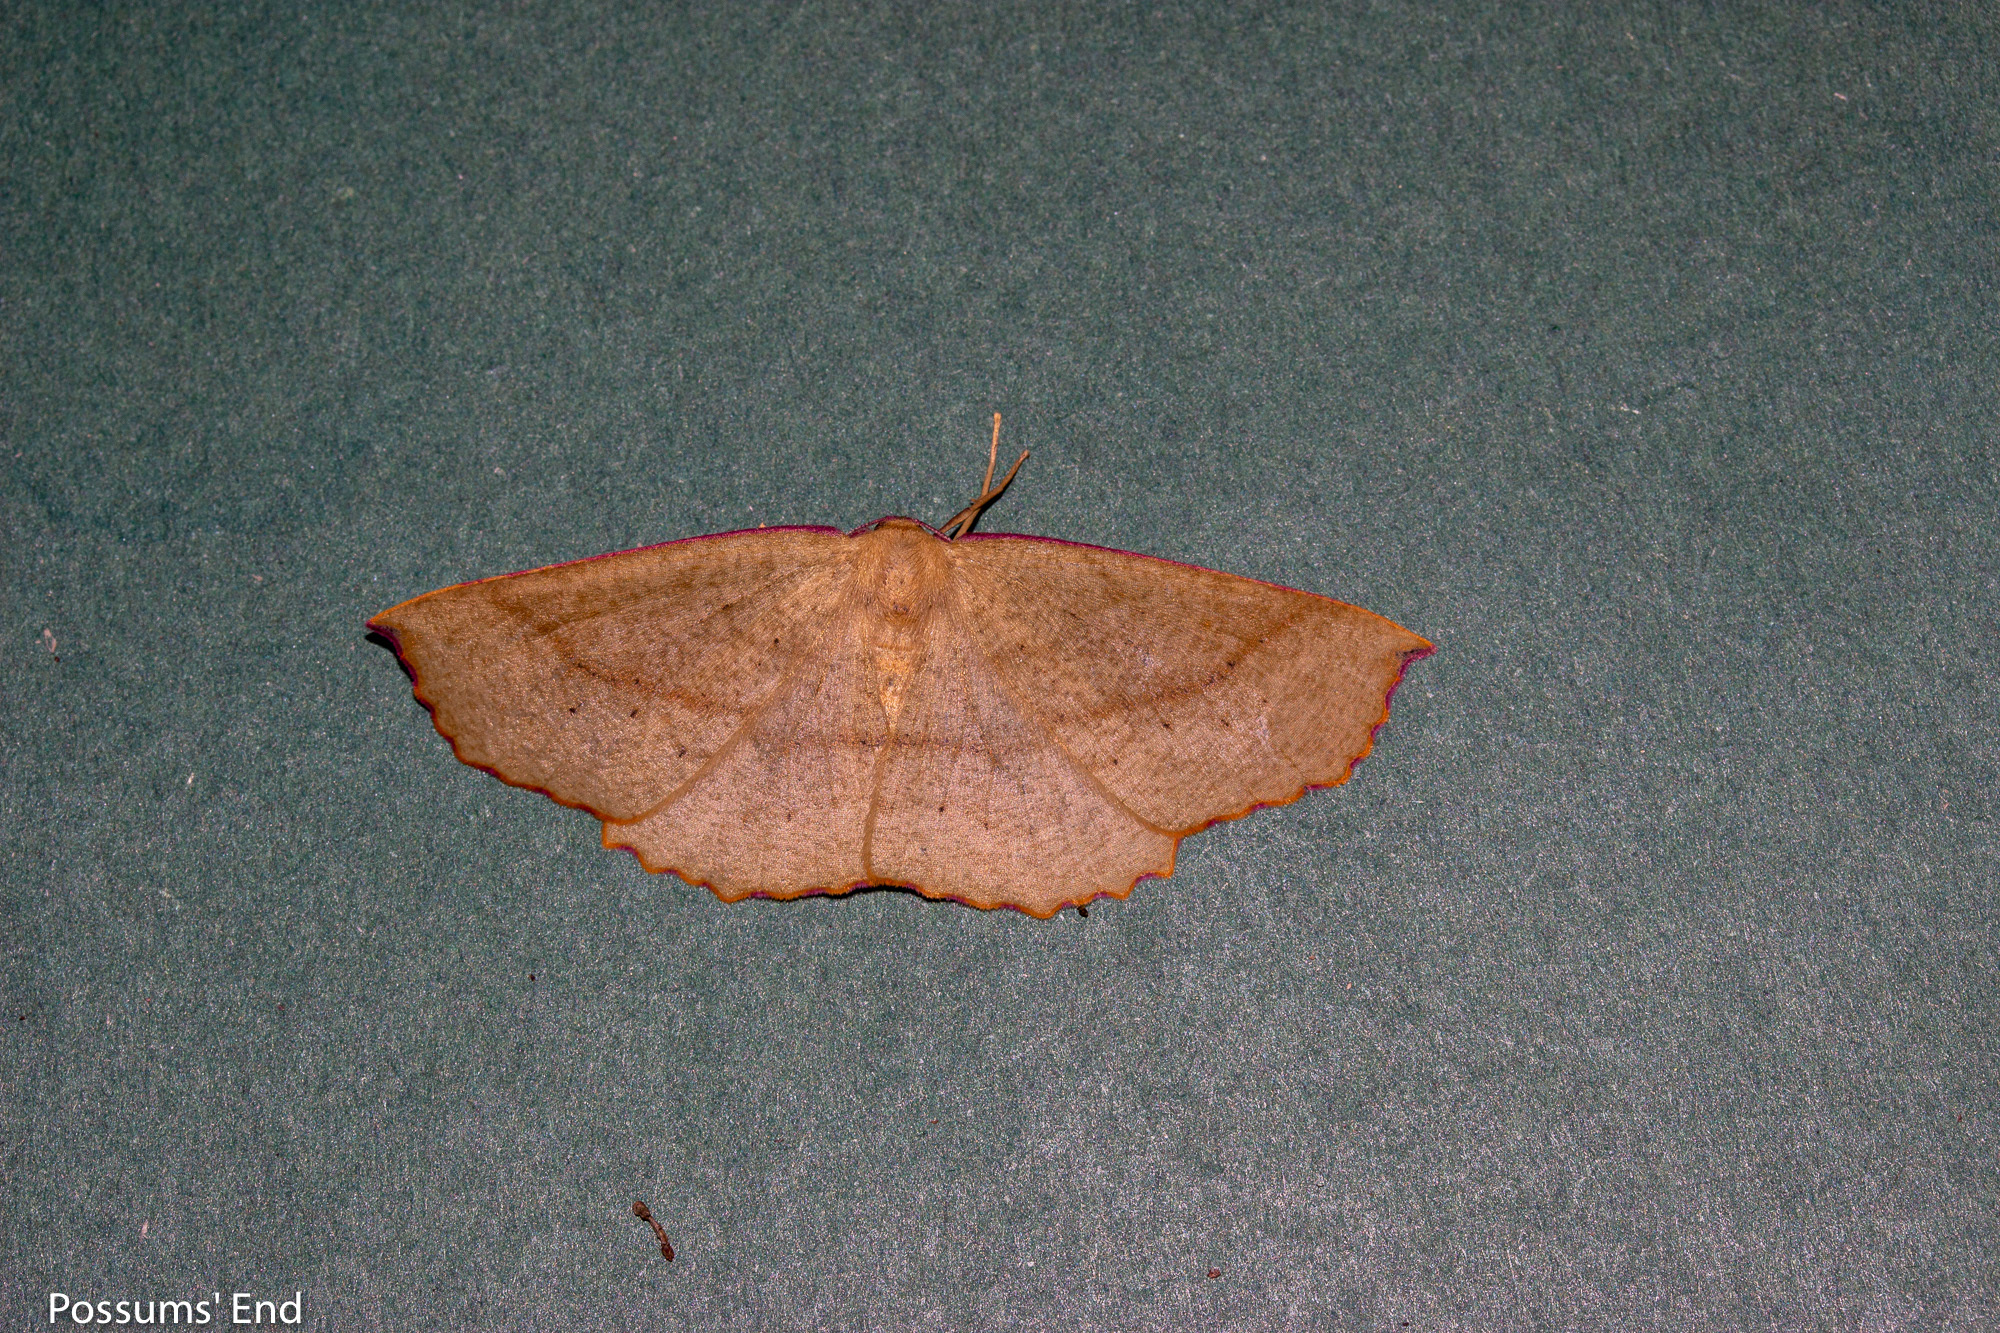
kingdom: Animalia
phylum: Arthropoda
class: Insecta
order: Lepidoptera
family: Geometridae
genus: Xyridacma
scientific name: Xyridacma alectoraria
